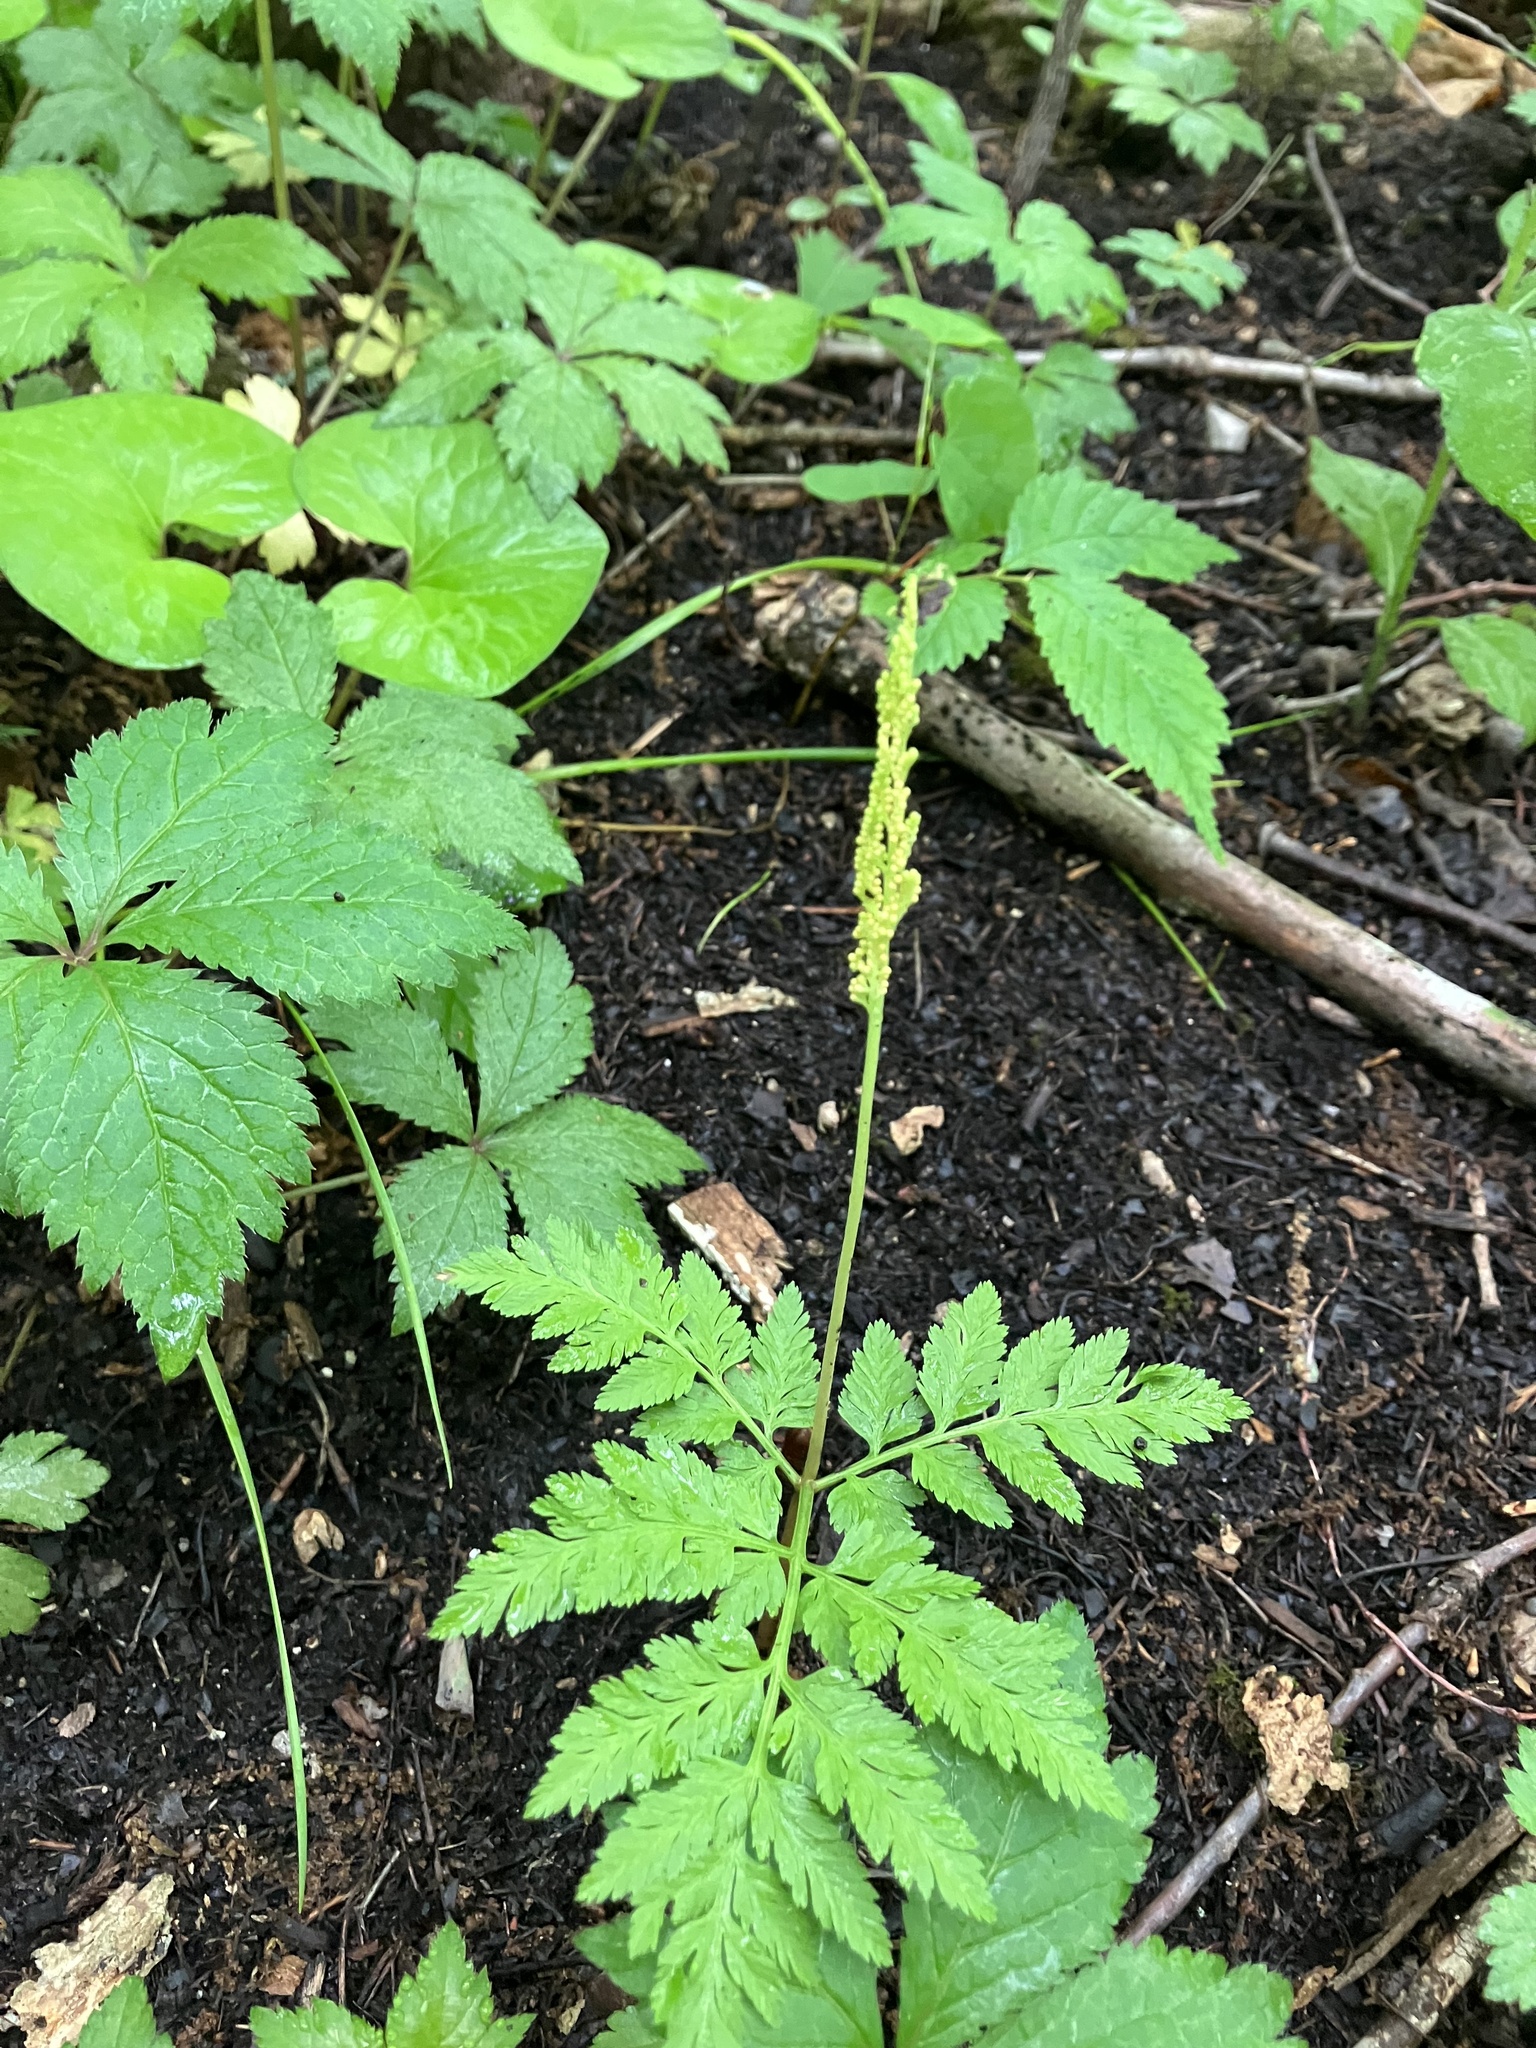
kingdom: Plantae
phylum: Tracheophyta
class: Polypodiopsida
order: Ophioglossales
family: Ophioglossaceae
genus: Botrypus
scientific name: Botrypus virginianus
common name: Common grapefern
